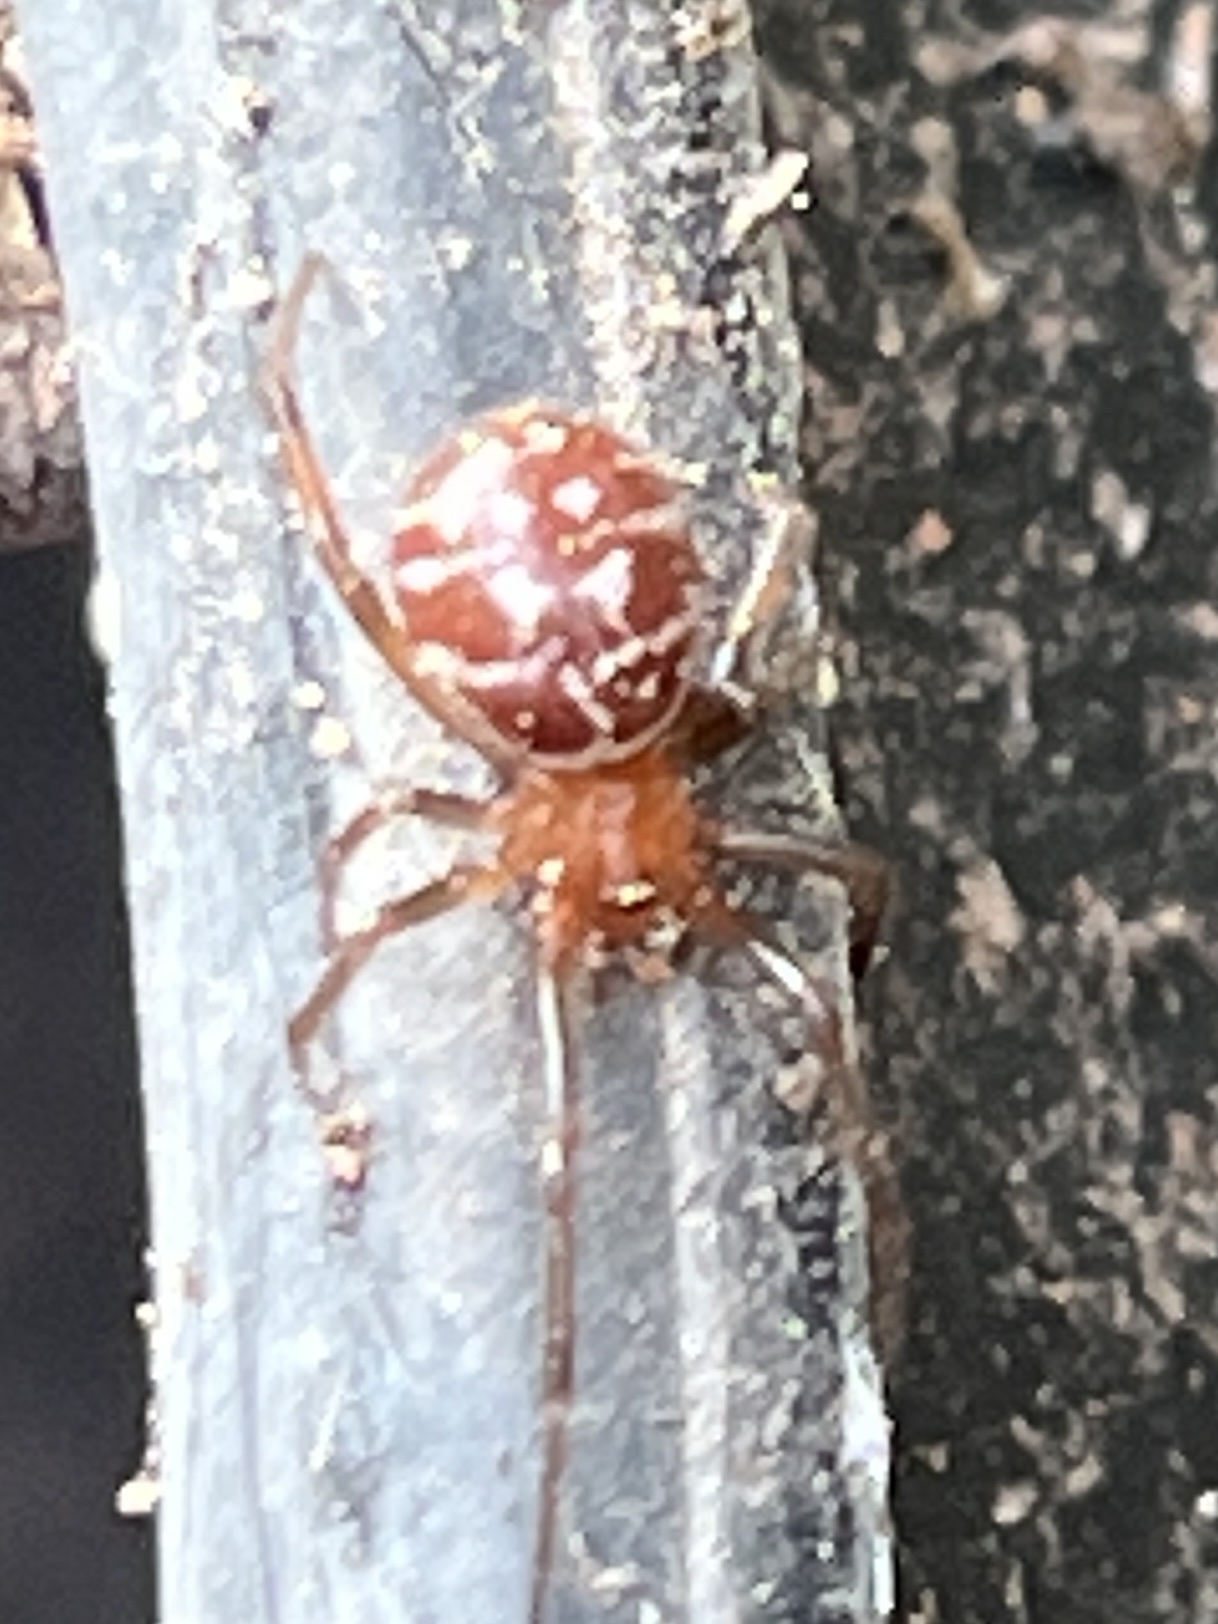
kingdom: Animalia
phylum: Arthropoda
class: Arachnida
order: Araneae
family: Theridiidae
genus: Steatoda
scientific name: Steatoda grossa
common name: False black widow
